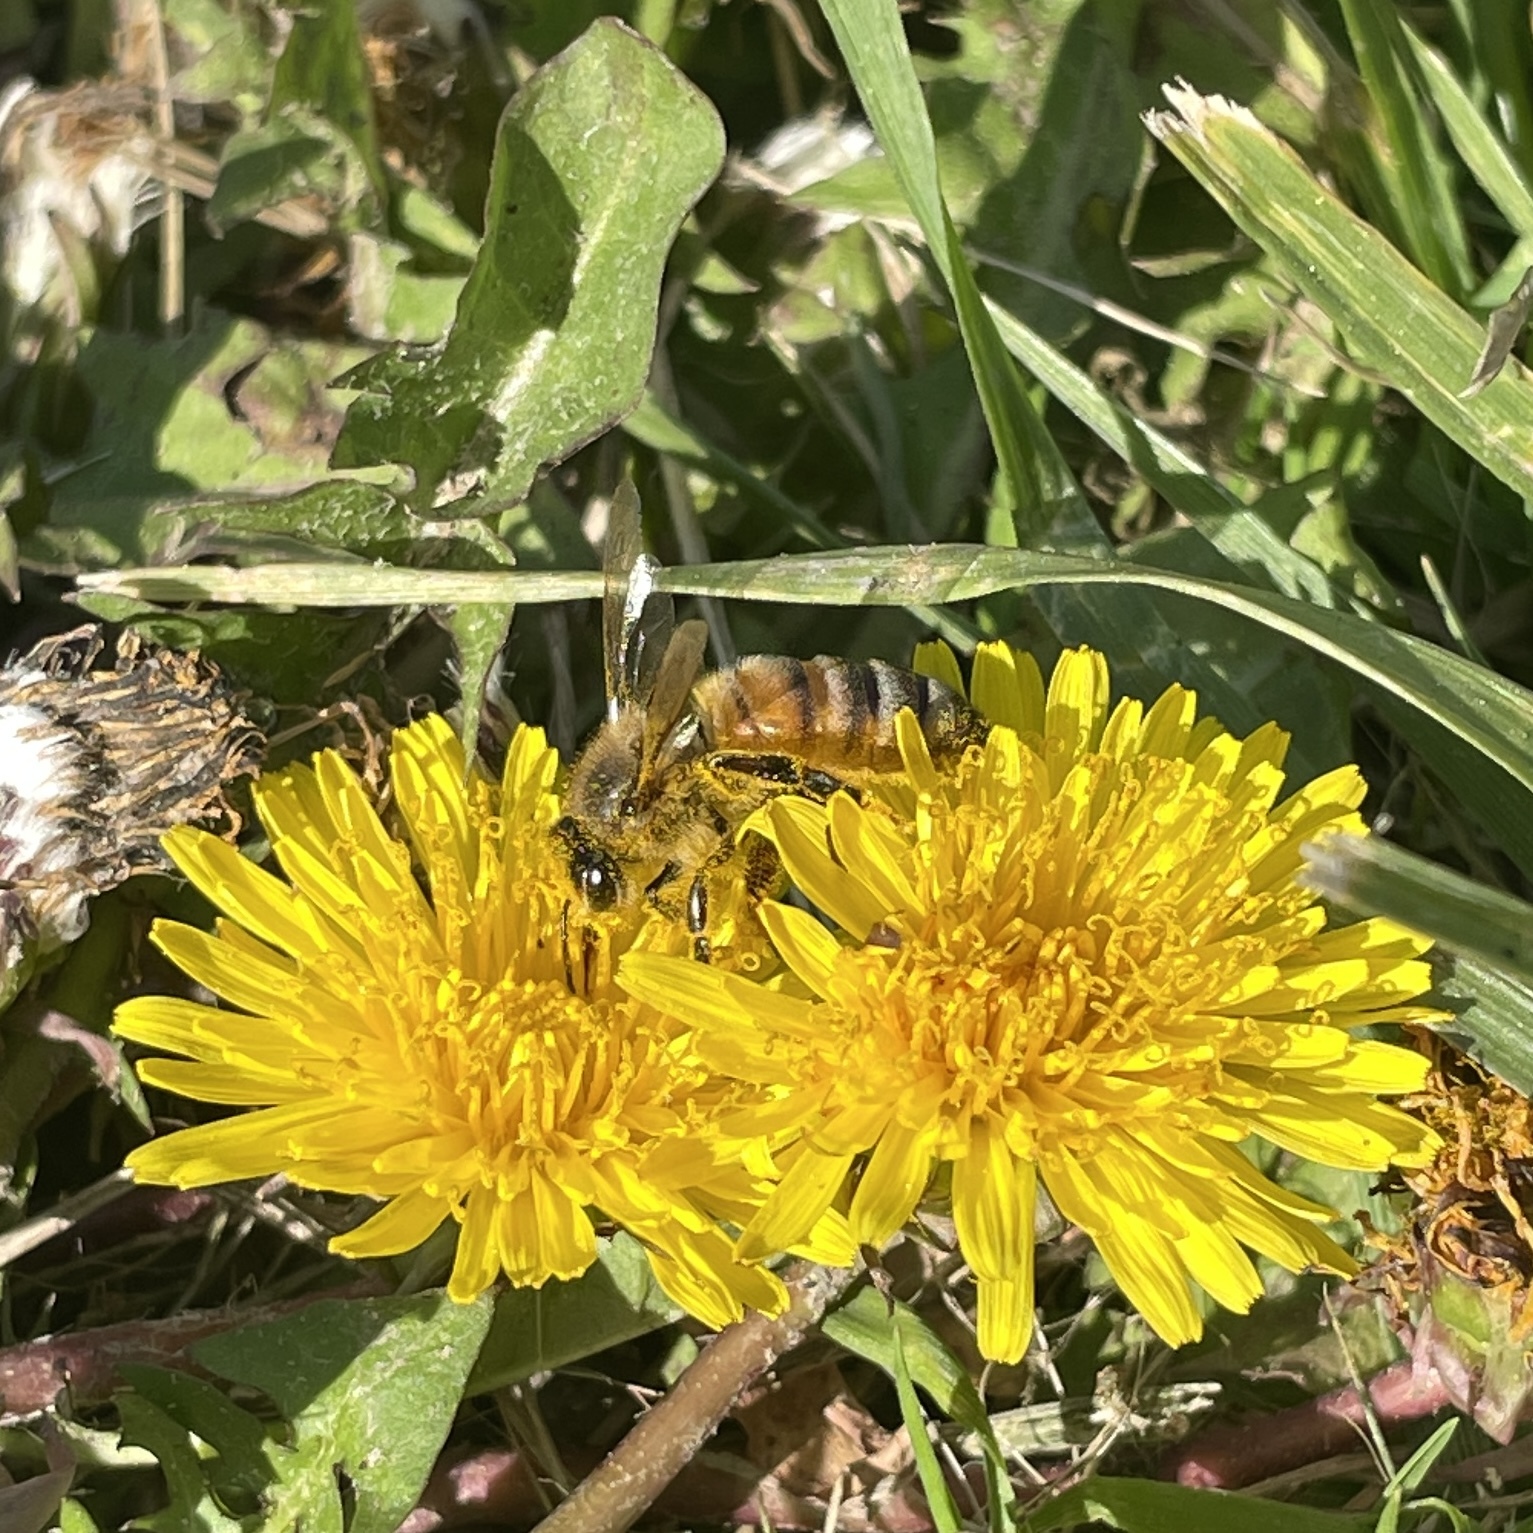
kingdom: Animalia
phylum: Arthropoda
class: Insecta
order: Hymenoptera
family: Apidae
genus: Apis
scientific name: Apis mellifera
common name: Honey bee
